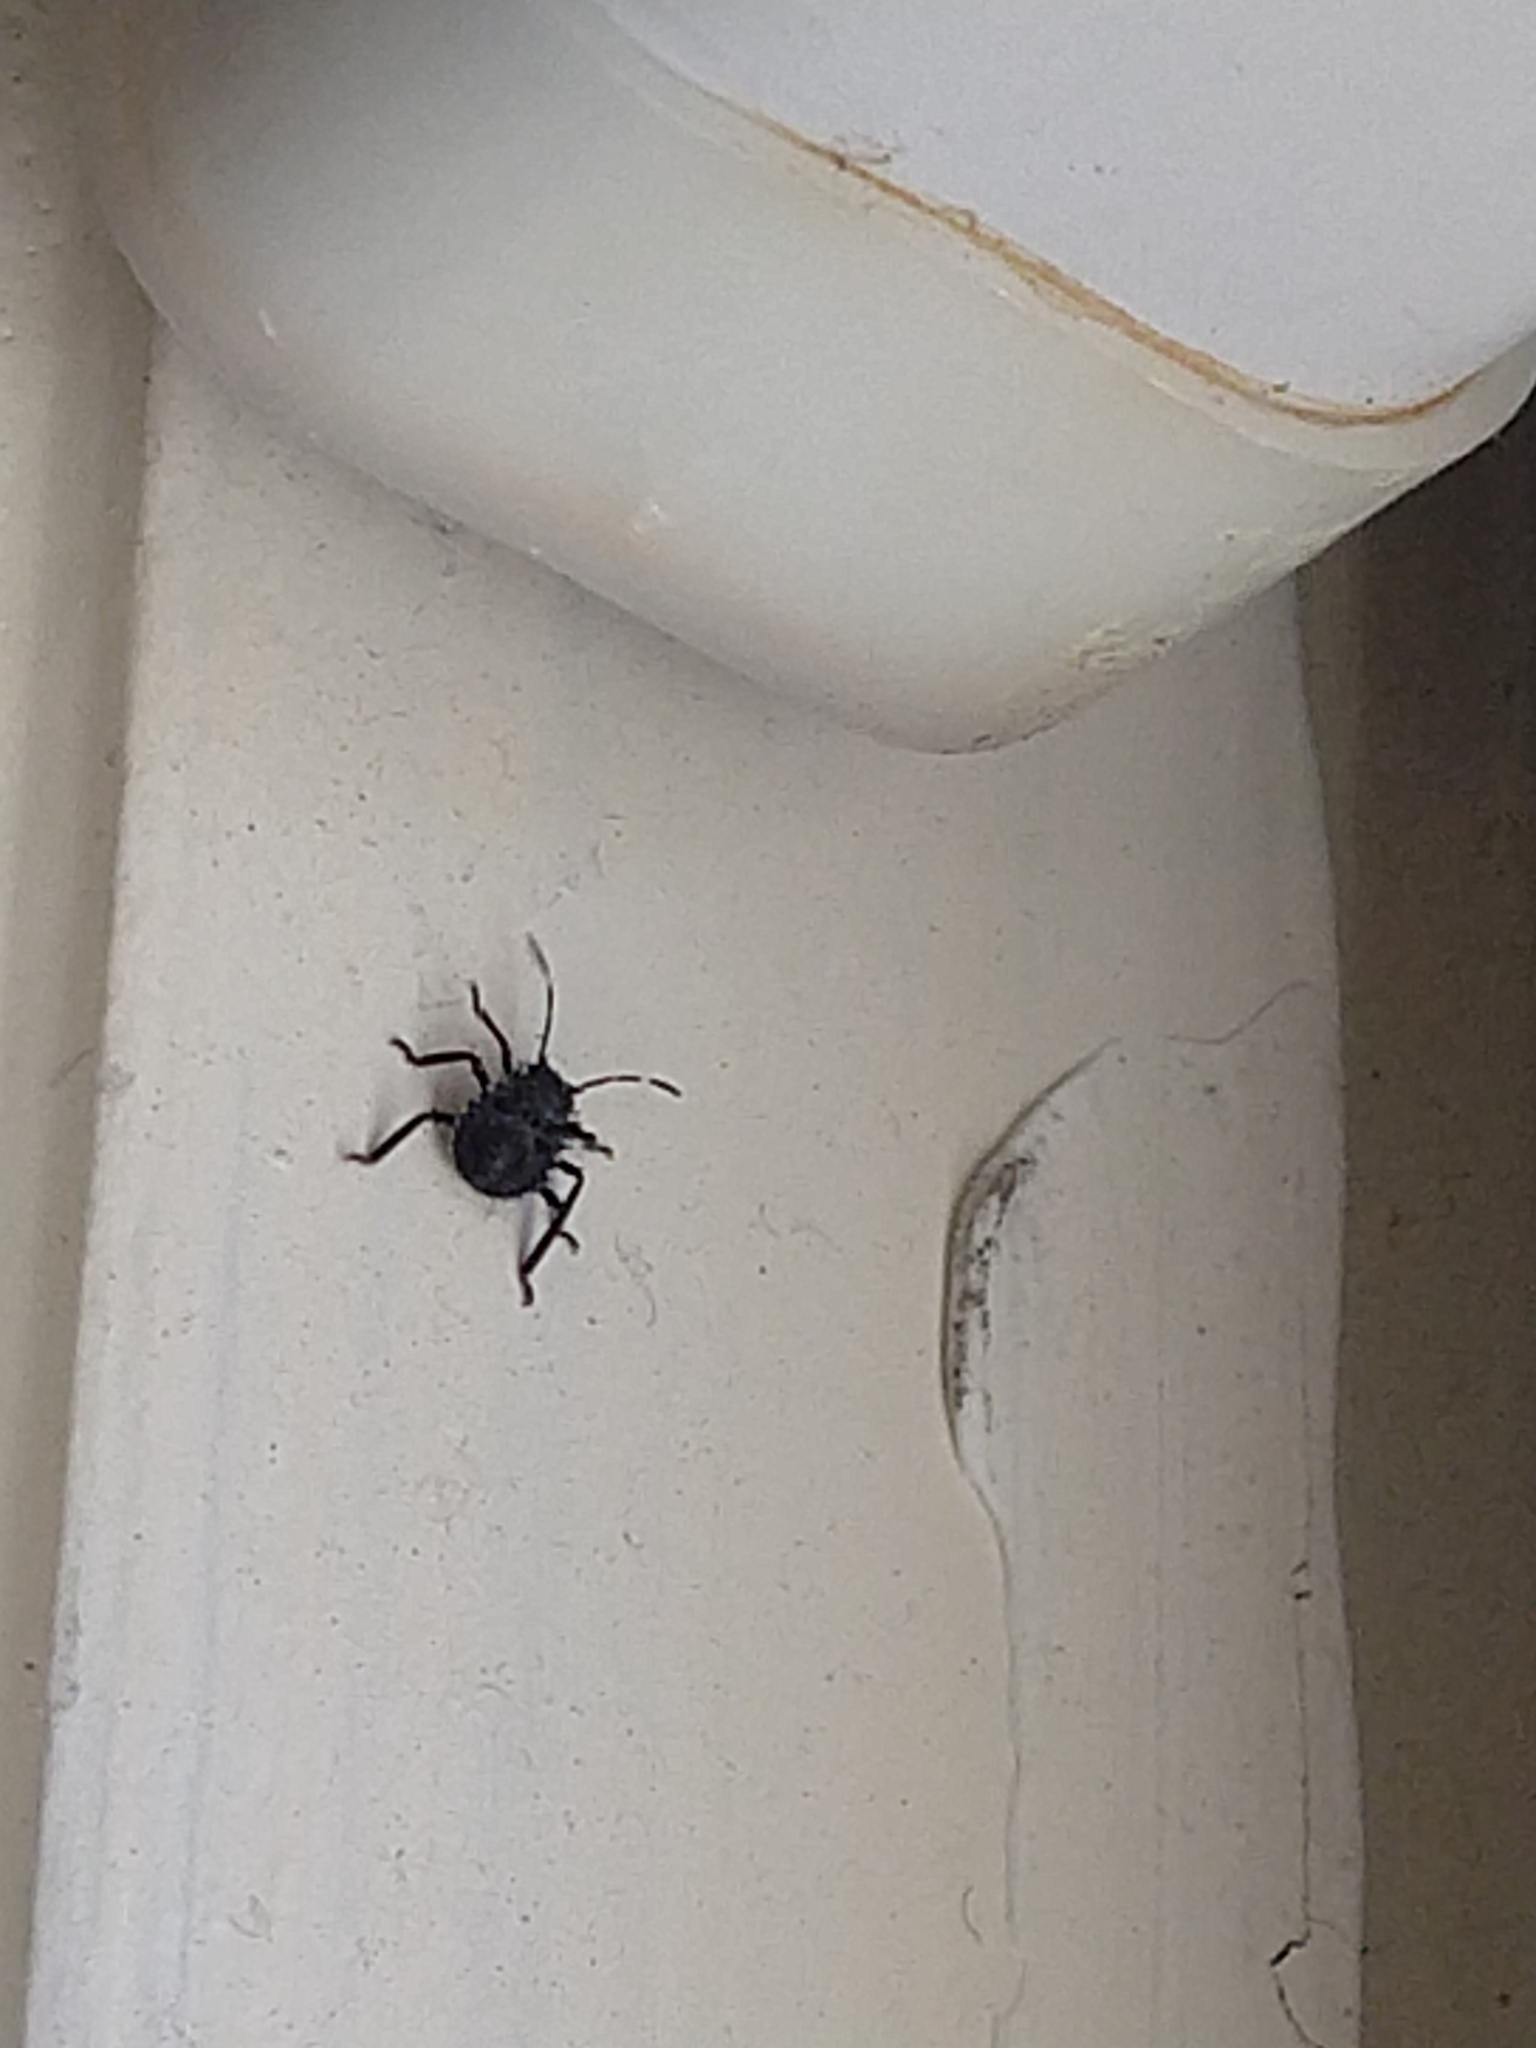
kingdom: Animalia
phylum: Arthropoda
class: Insecta
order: Hemiptera
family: Pentatomidae
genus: Halyomorpha
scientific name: Halyomorpha halys
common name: Brown marmorated stink bug
